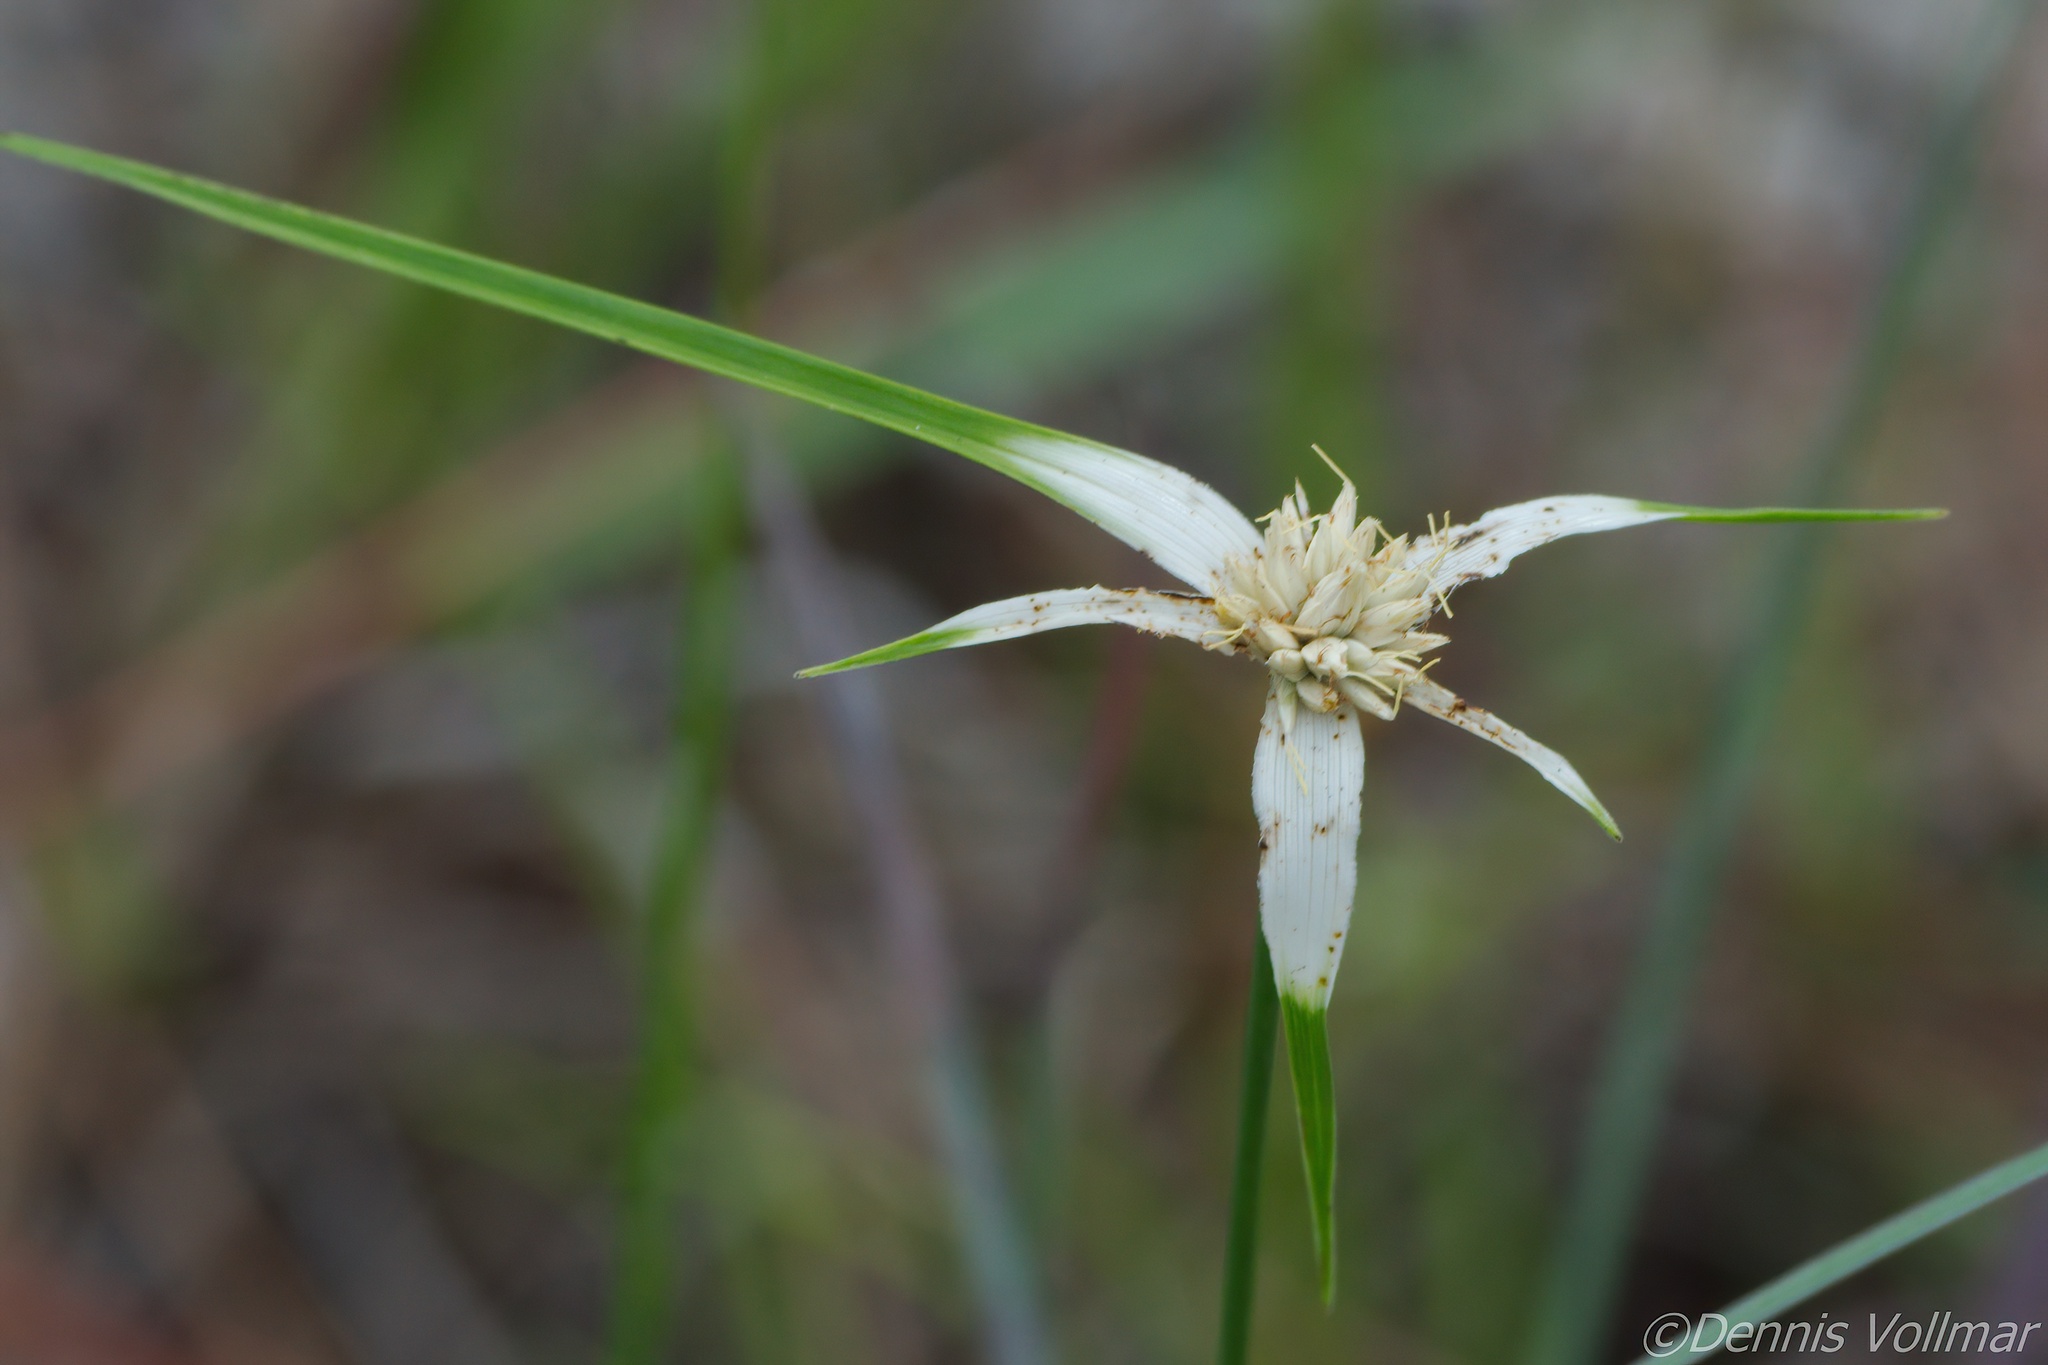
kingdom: Plantae
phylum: Tracheophyta
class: Liliopsida
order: Poales
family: Cyperaceae
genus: Rhynchospora
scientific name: Rhynchospora colorata
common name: Star sedge
